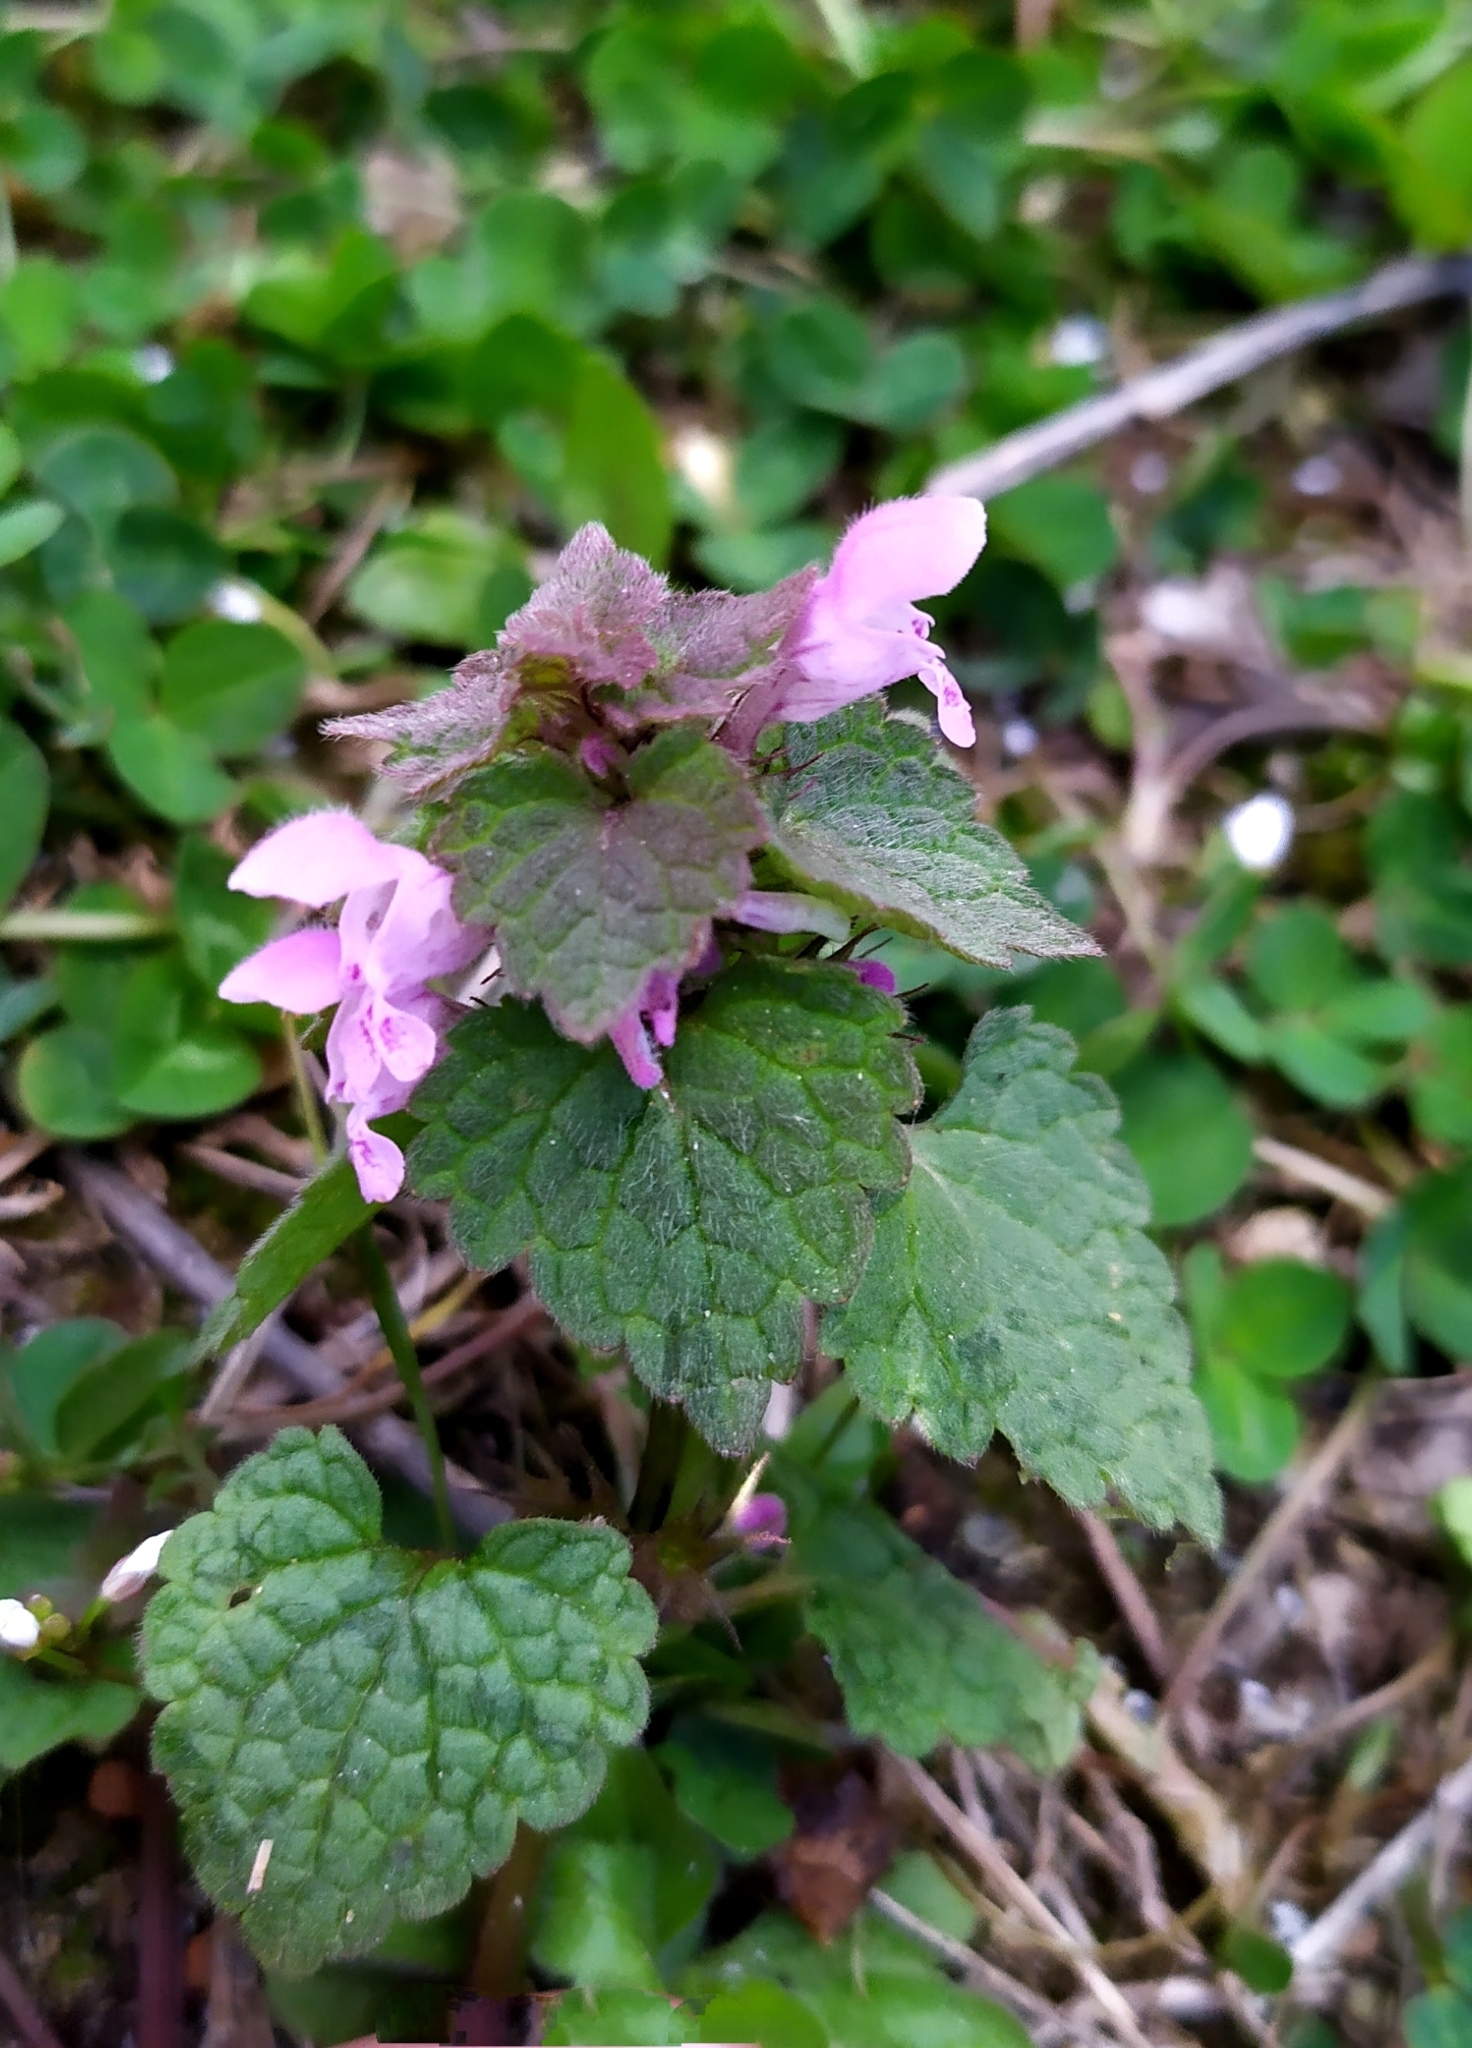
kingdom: Plantae
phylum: Tracheophyta
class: Magnoliopsida
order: Lamiales
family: Lamiaceae
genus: Lamium
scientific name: Lamium purpureum
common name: Red dead-nettle
